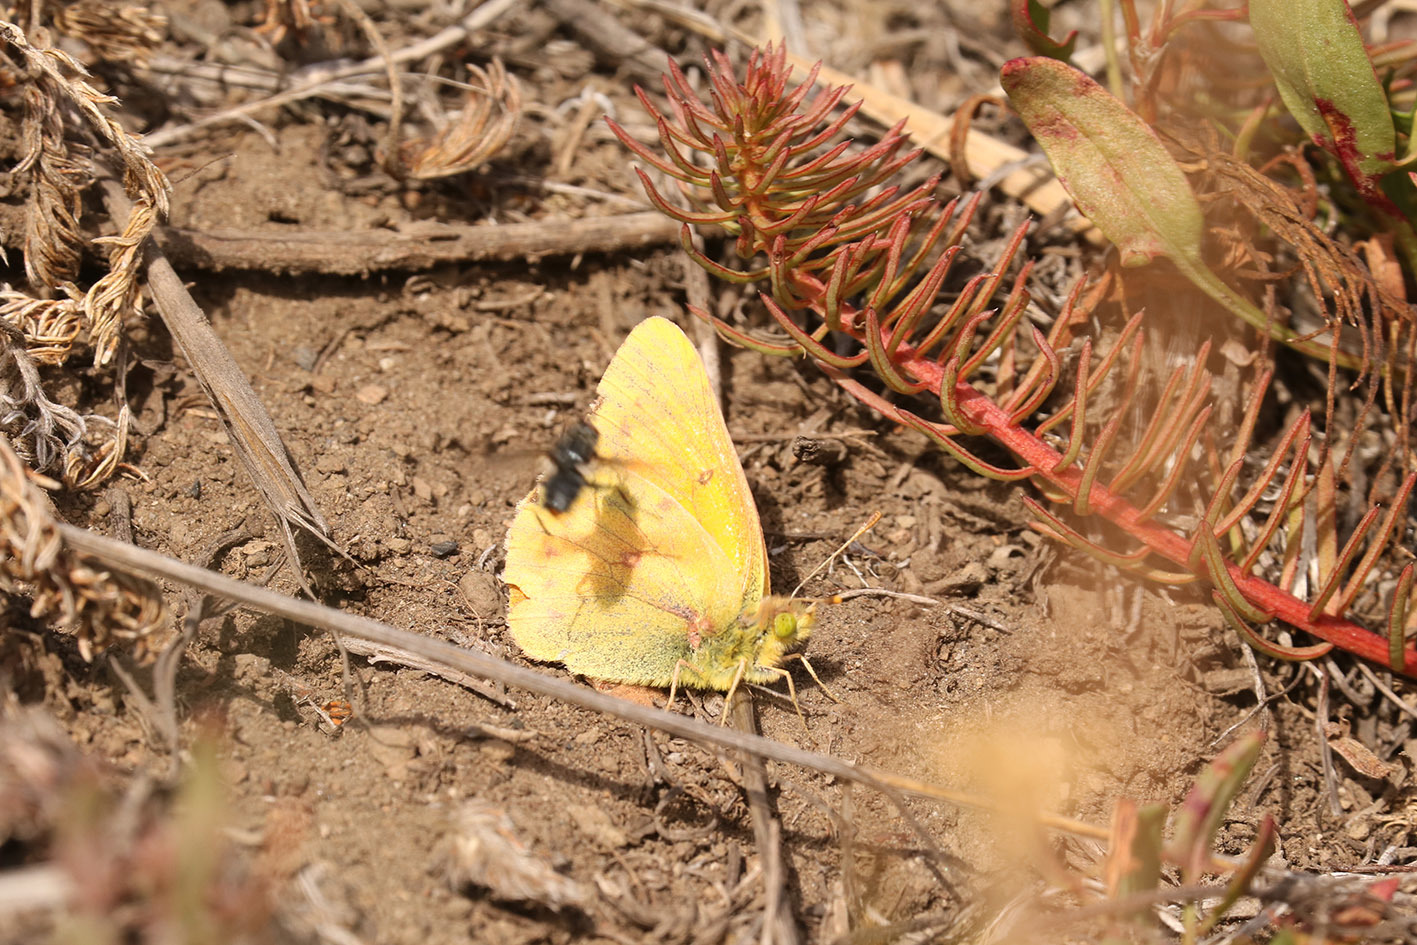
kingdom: Animalia
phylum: Arthropoda
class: Insecta
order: Lepidoptera
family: Pieridae
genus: Colias
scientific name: Colias vauthierii
